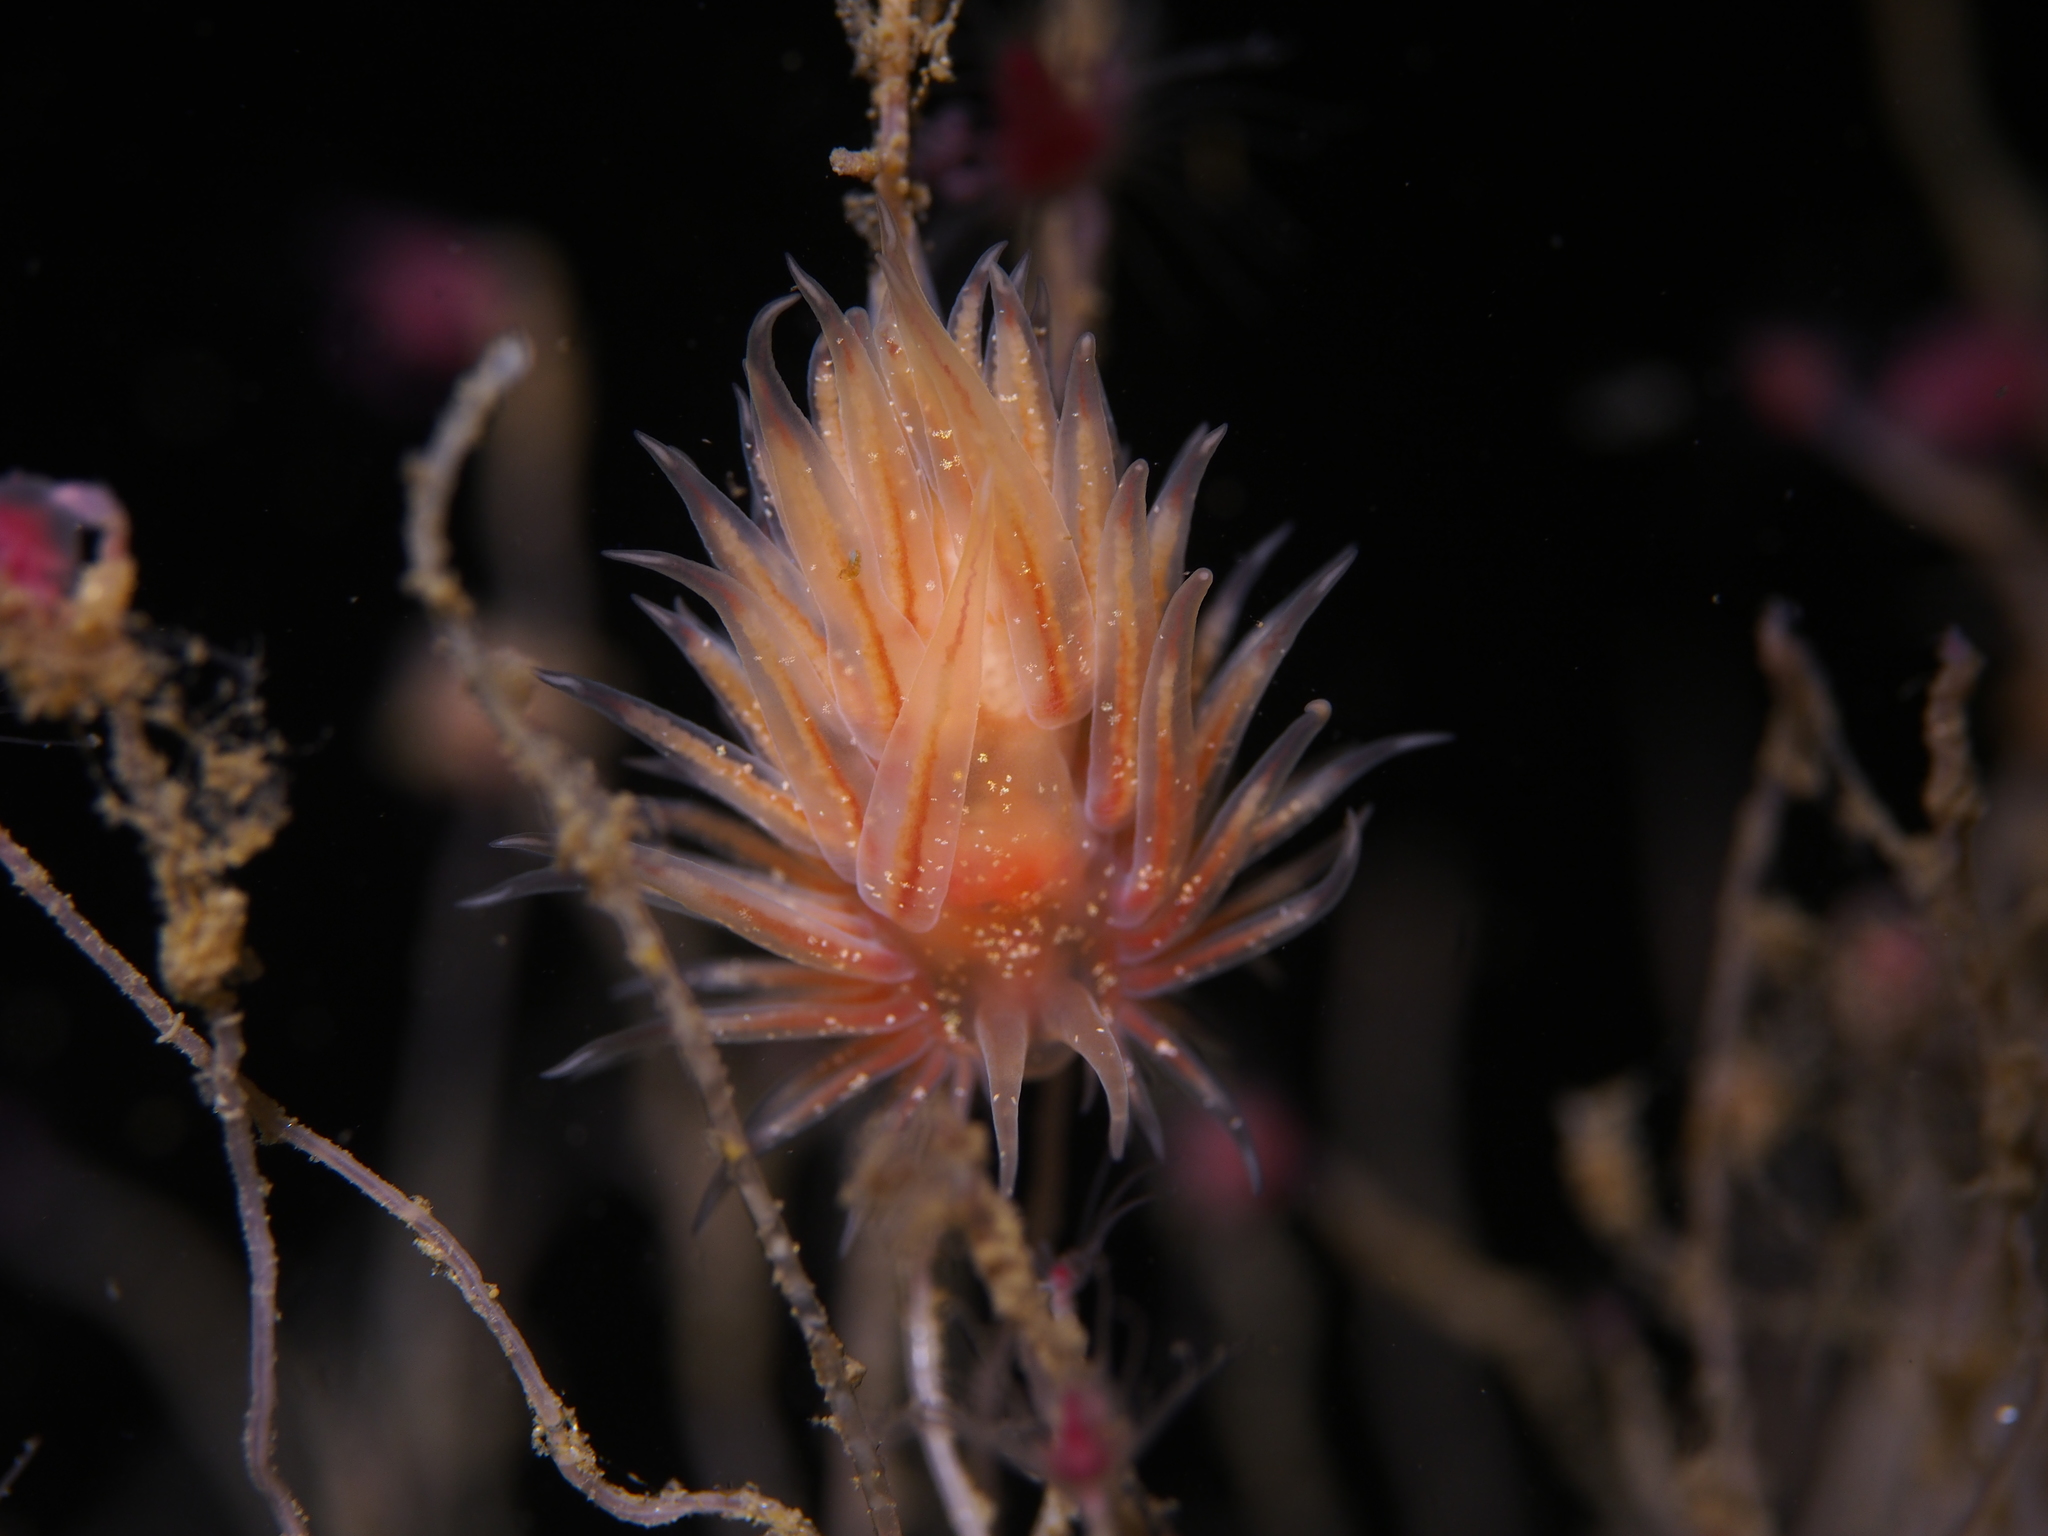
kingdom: Animalia
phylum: Mollusca
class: Gastropoda
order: Nudibranchia
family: Cumanotidae
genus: Cumanotus
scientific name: Cumanotus beaumonti
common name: Polyp aeolis
